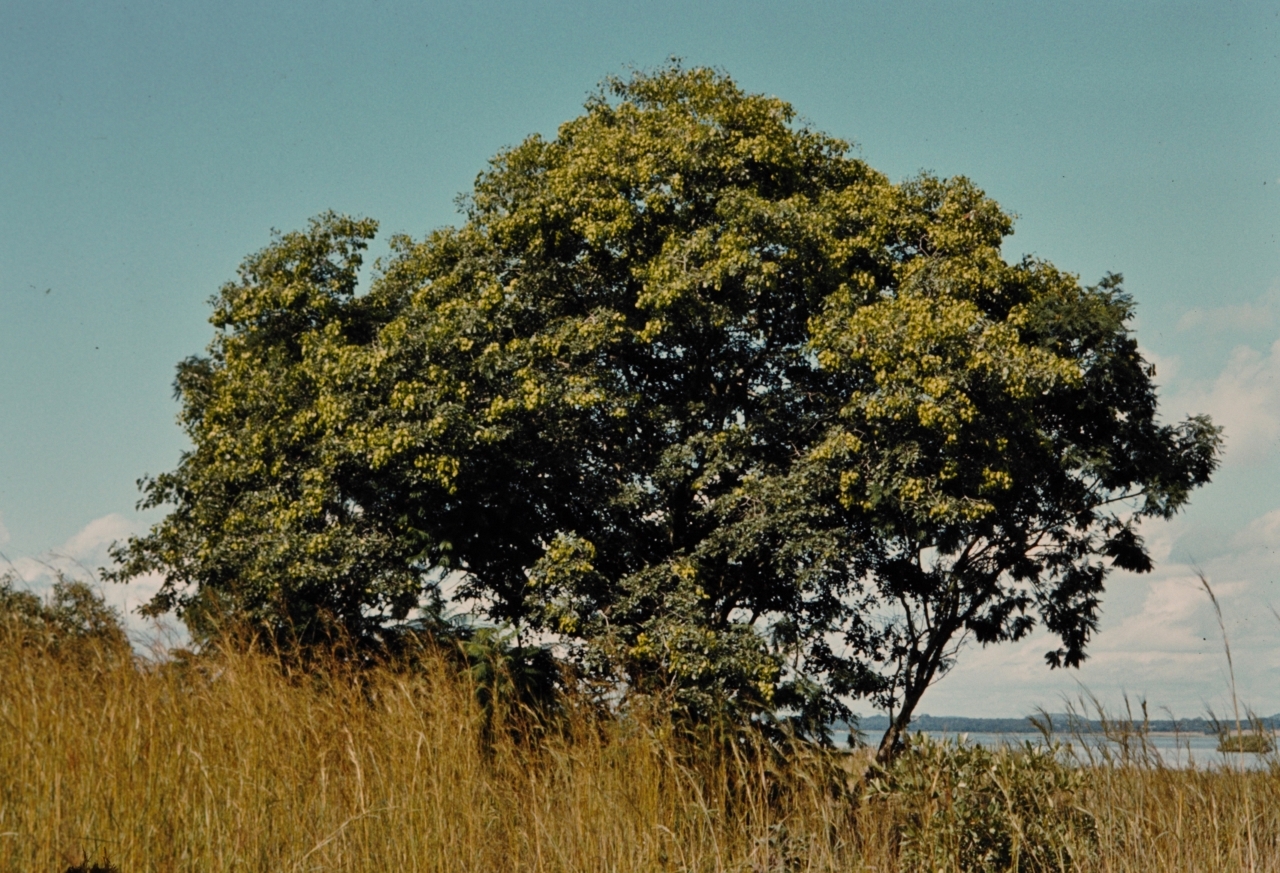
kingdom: Plantae
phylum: Tracheophyta
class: Magnoliopsida
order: Fabales
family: Fabaceae
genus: Pterocarpus
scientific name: Pterocarpus rotundifolius
